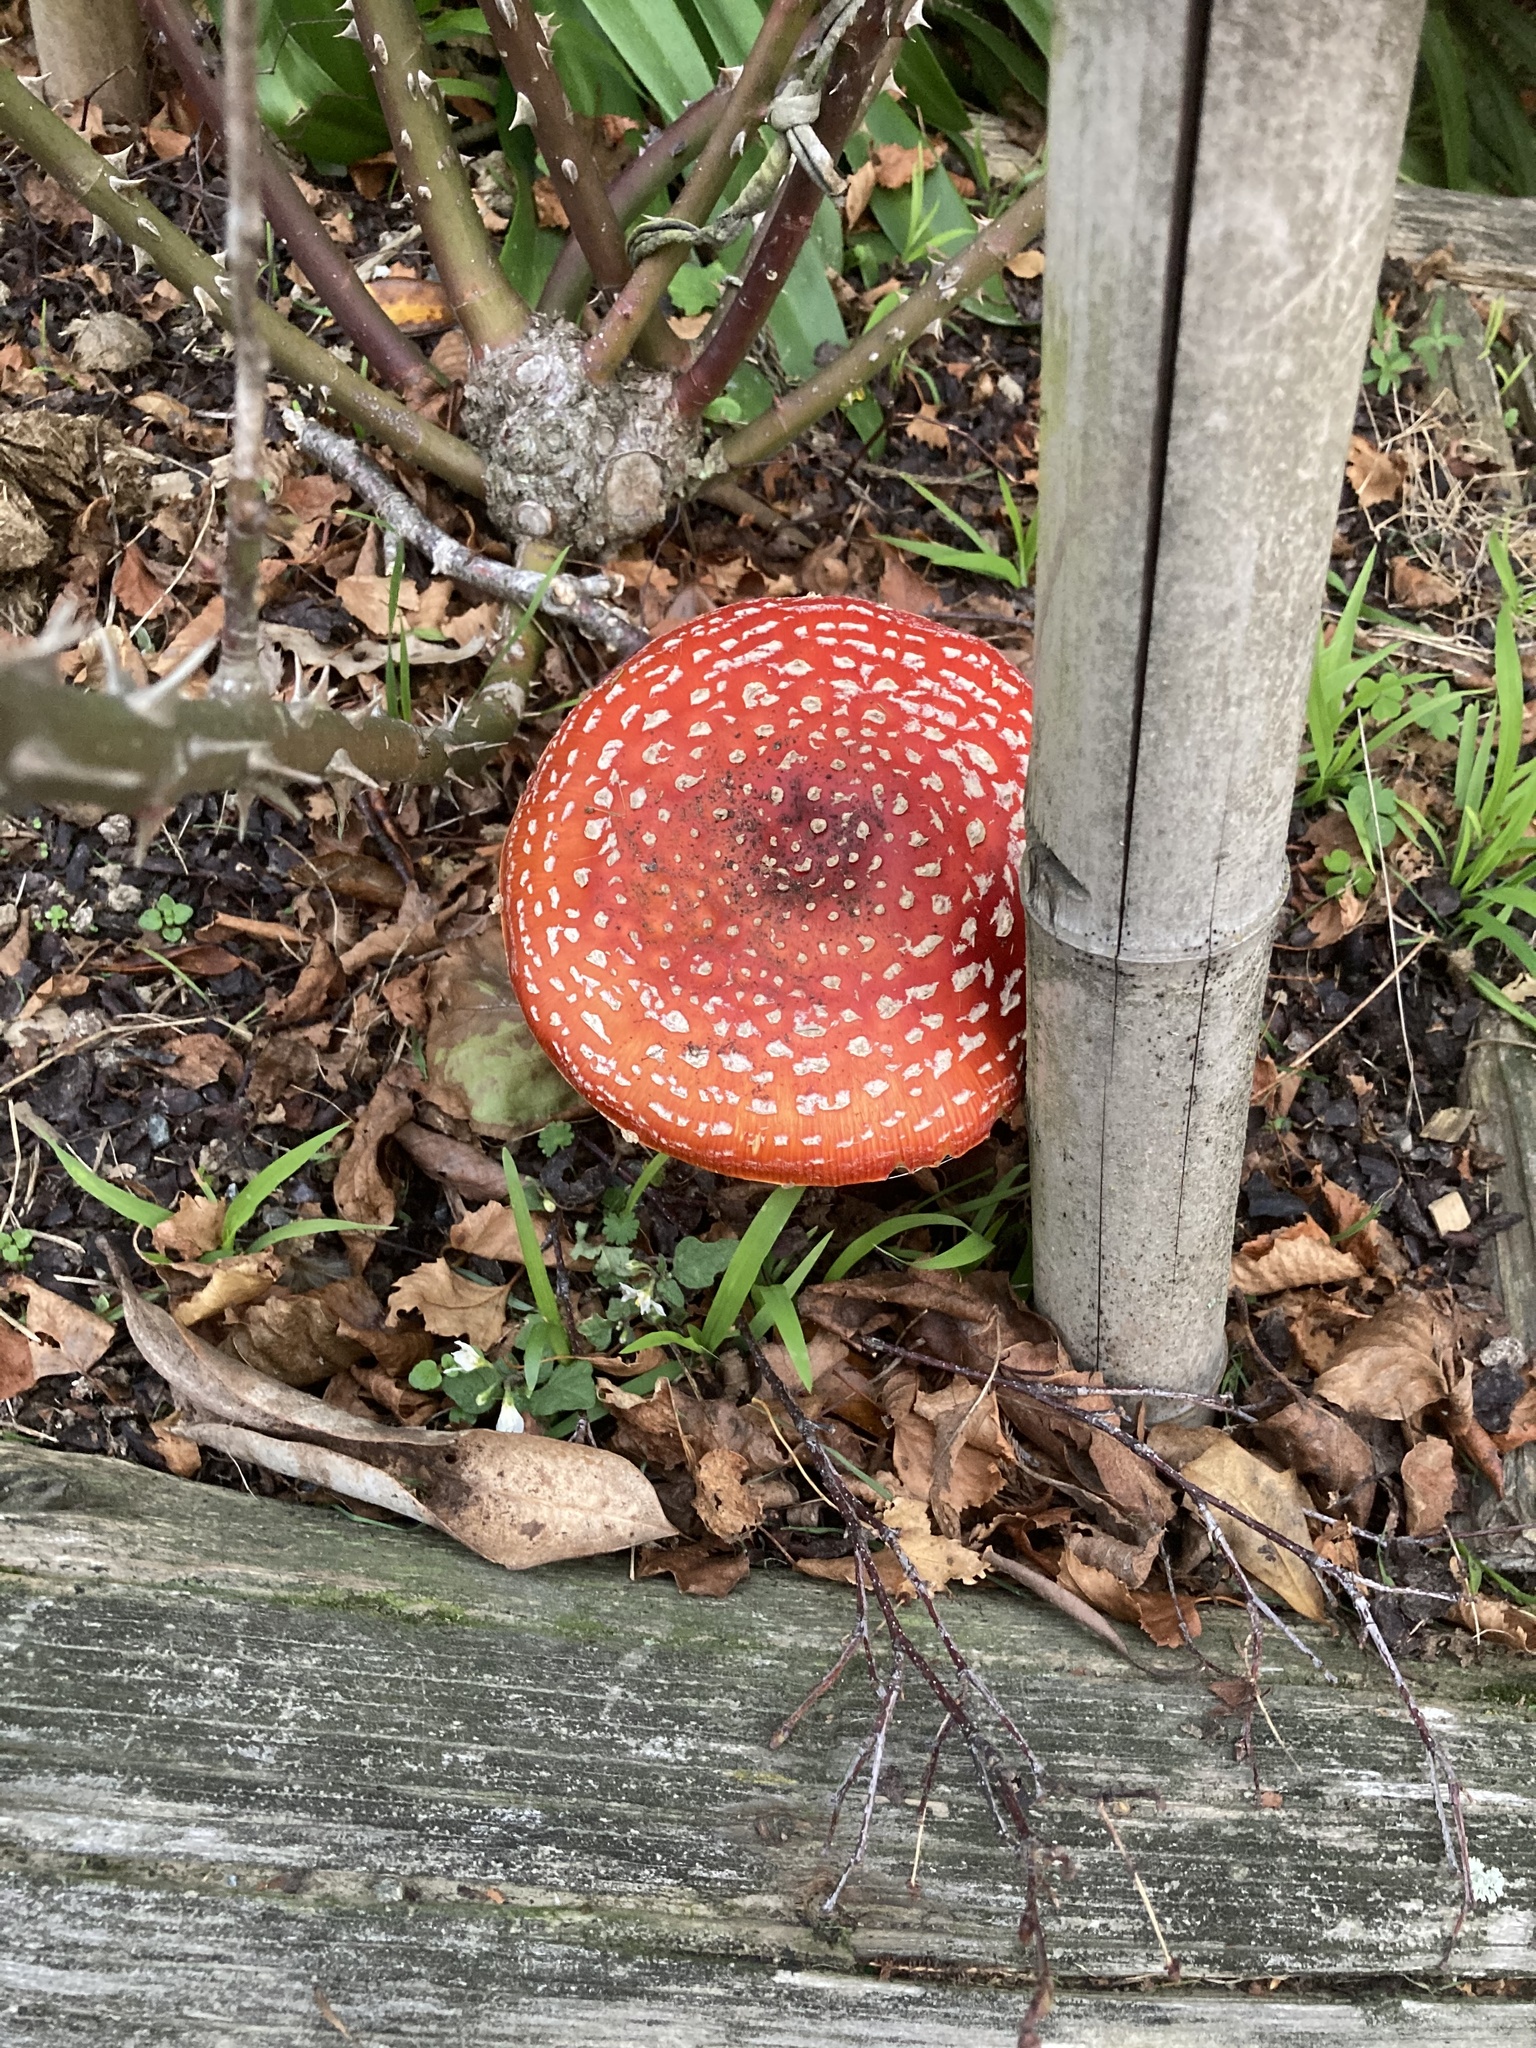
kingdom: Fungi
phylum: Basidiomycota
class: Agaricomycetes
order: Agaricales
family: Amanitaceae
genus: Amanita
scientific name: Amanita muscaria
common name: Fly agaric
